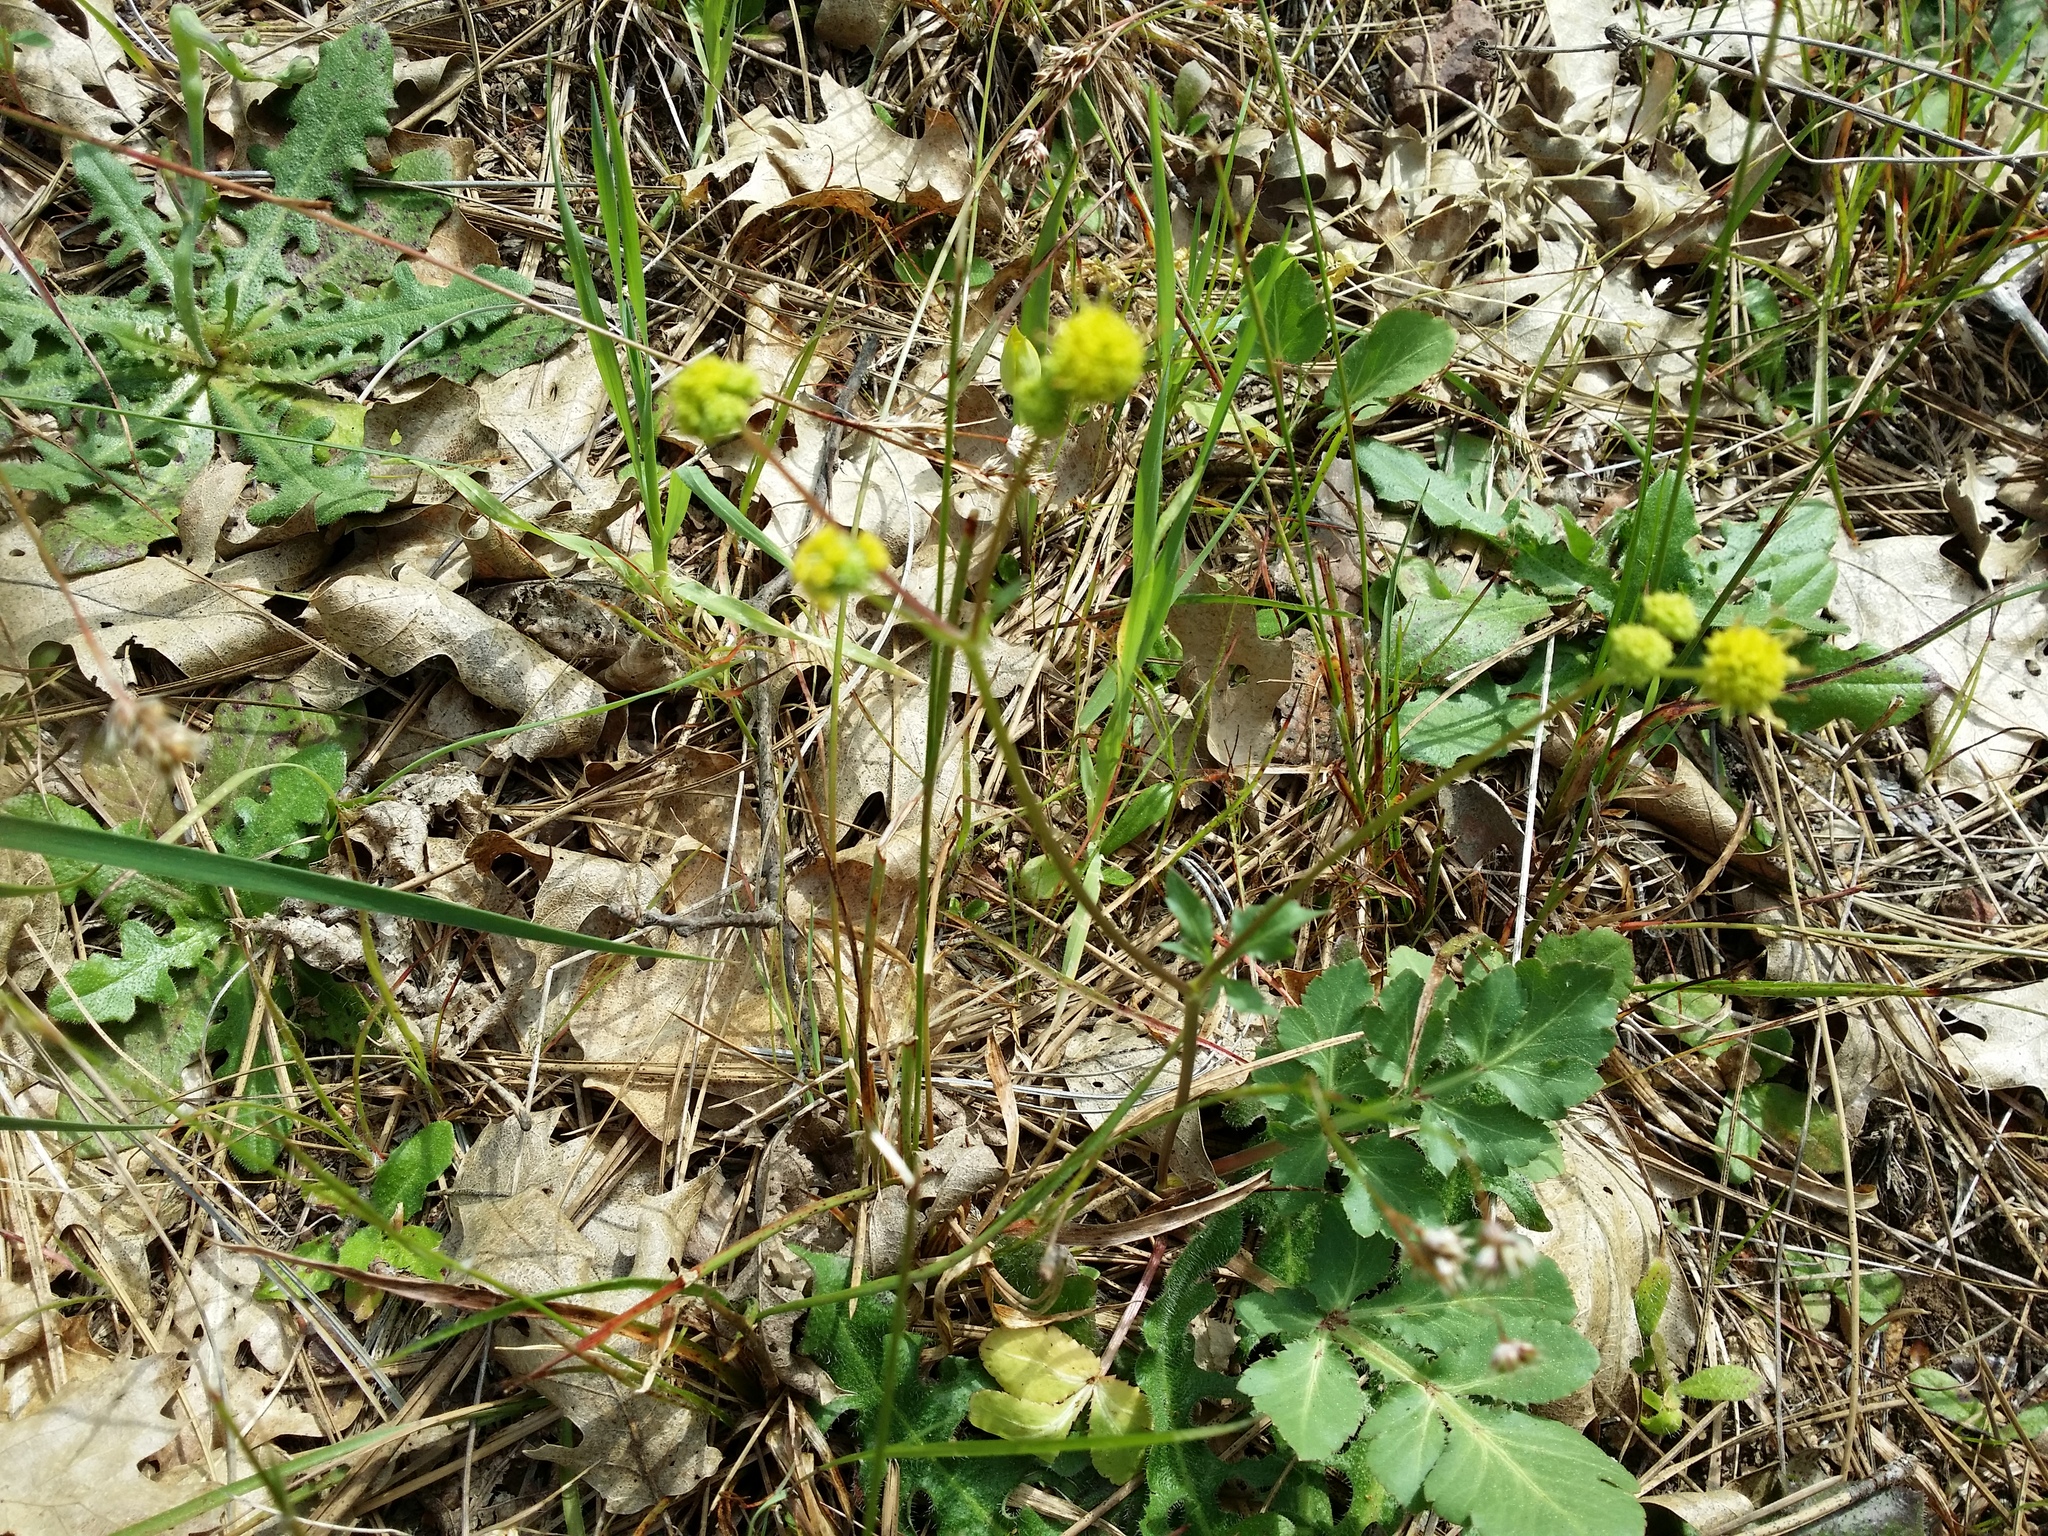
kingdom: Plantae
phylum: Tracheophyta
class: Magnoliopsida
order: Apiales
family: Apiaceae
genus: Sanicula
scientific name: Sanicula bipinnatifida
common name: Shoe-buttons
